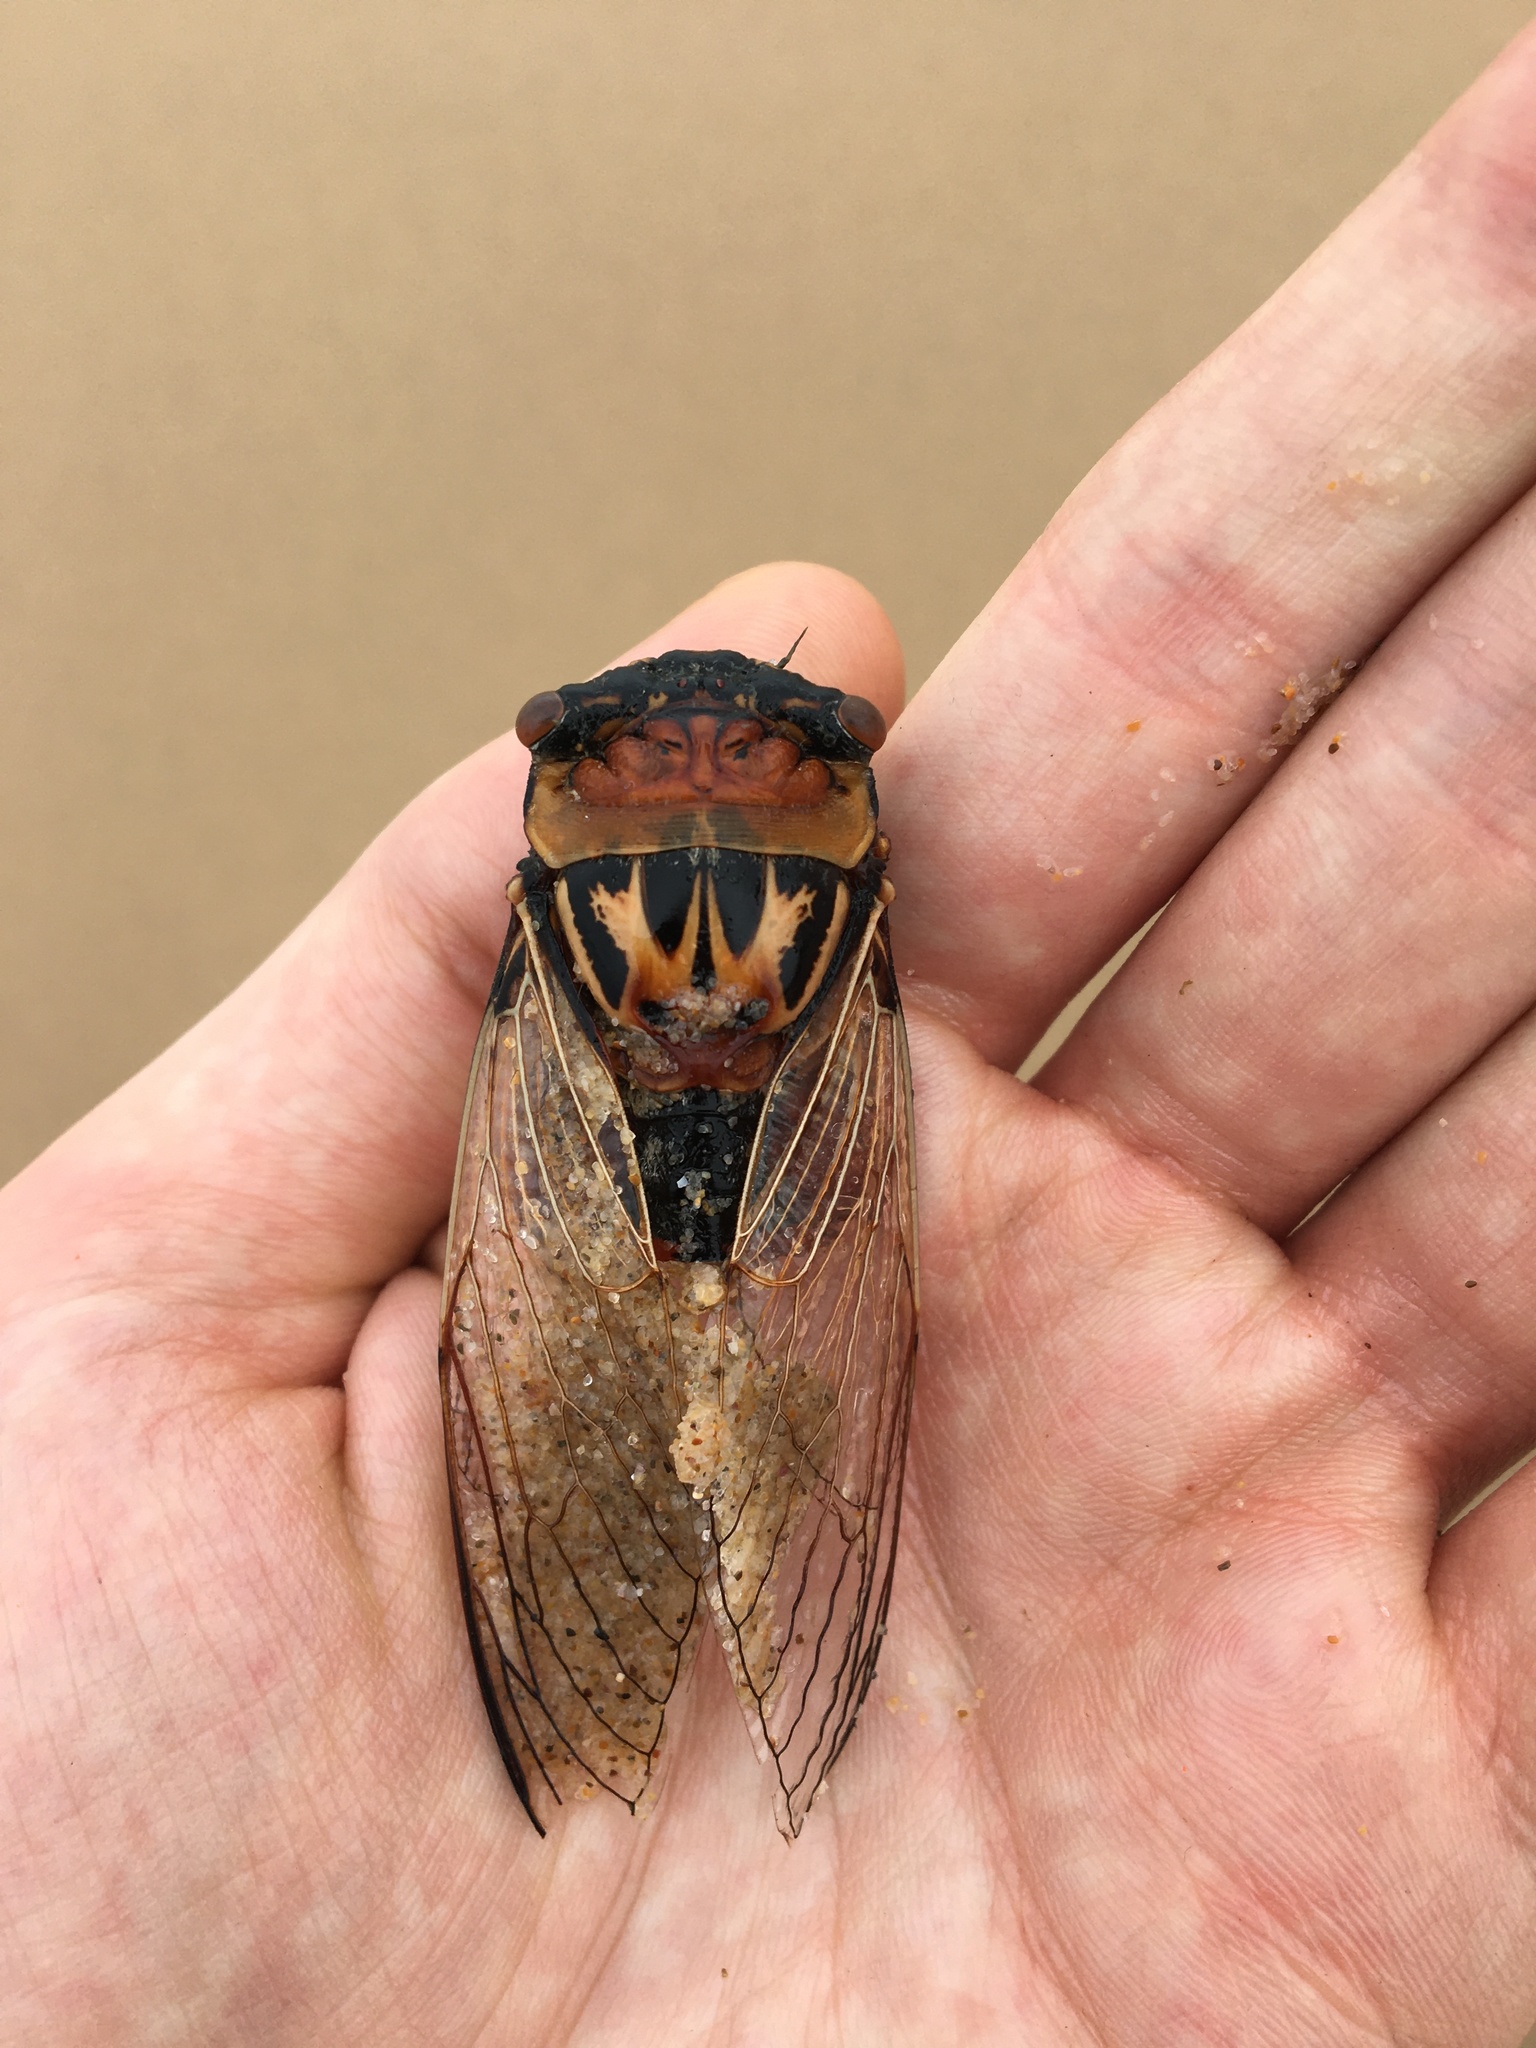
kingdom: Animalia
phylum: Arthropoda
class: Insecta
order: Hemiptera
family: Cicadidae
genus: Thopha
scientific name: Thopha saccata
